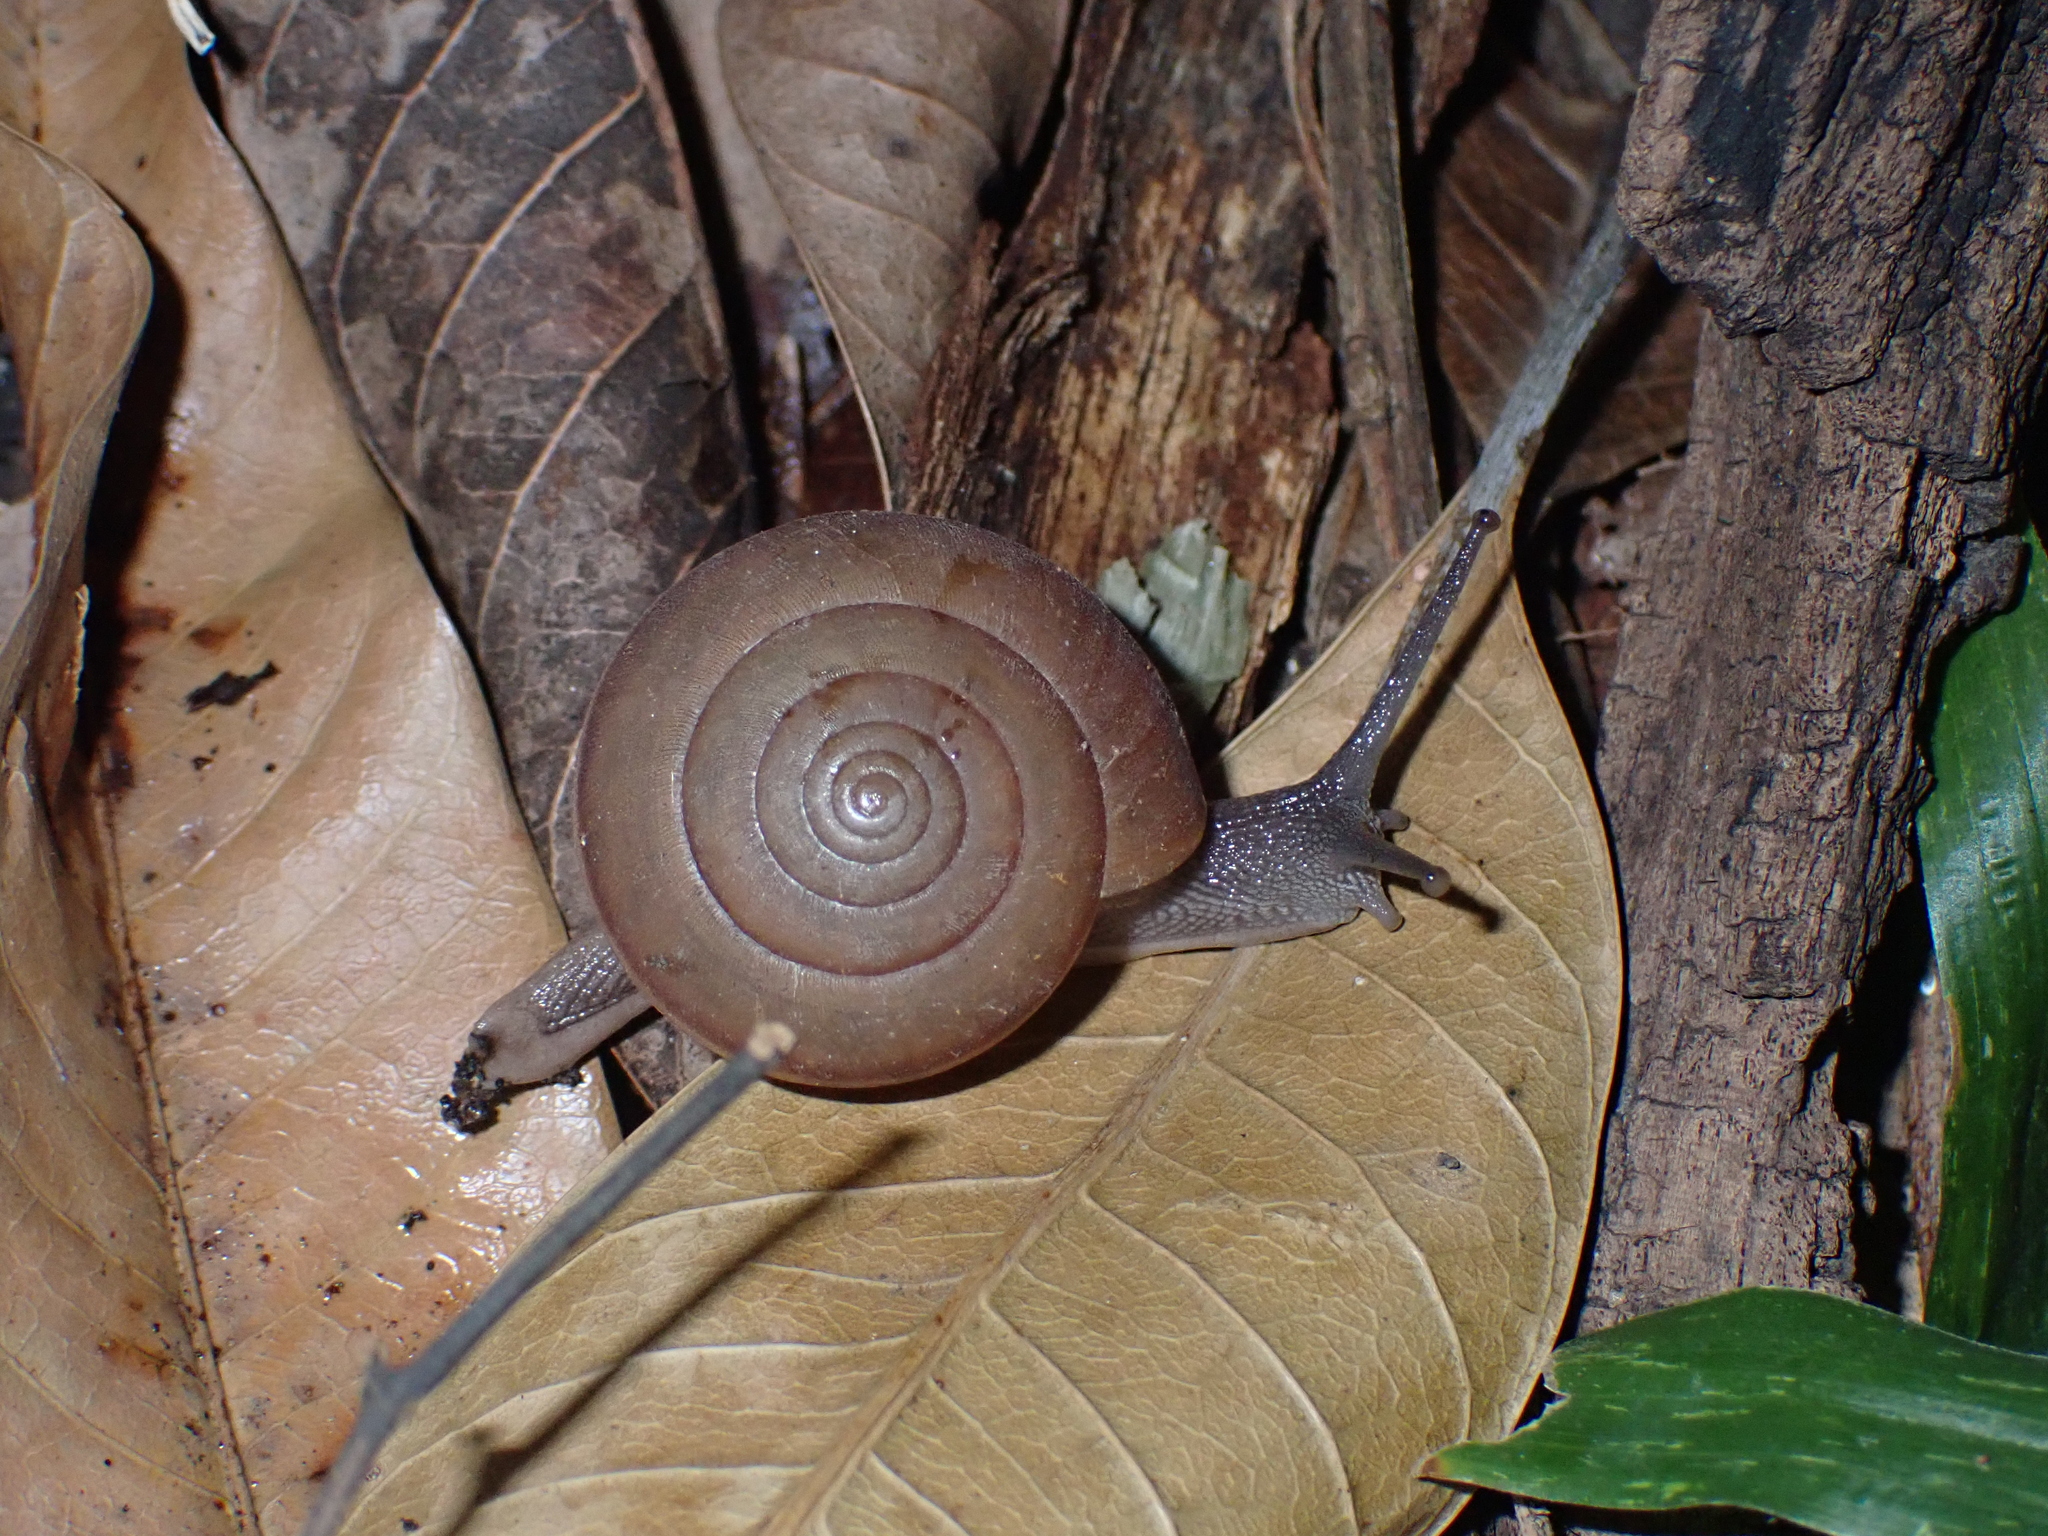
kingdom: Animalia
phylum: Mollusca
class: Gastropoda
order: Stylommatophora
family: Ariophantidae
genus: Sarika
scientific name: Sarika siamensis
